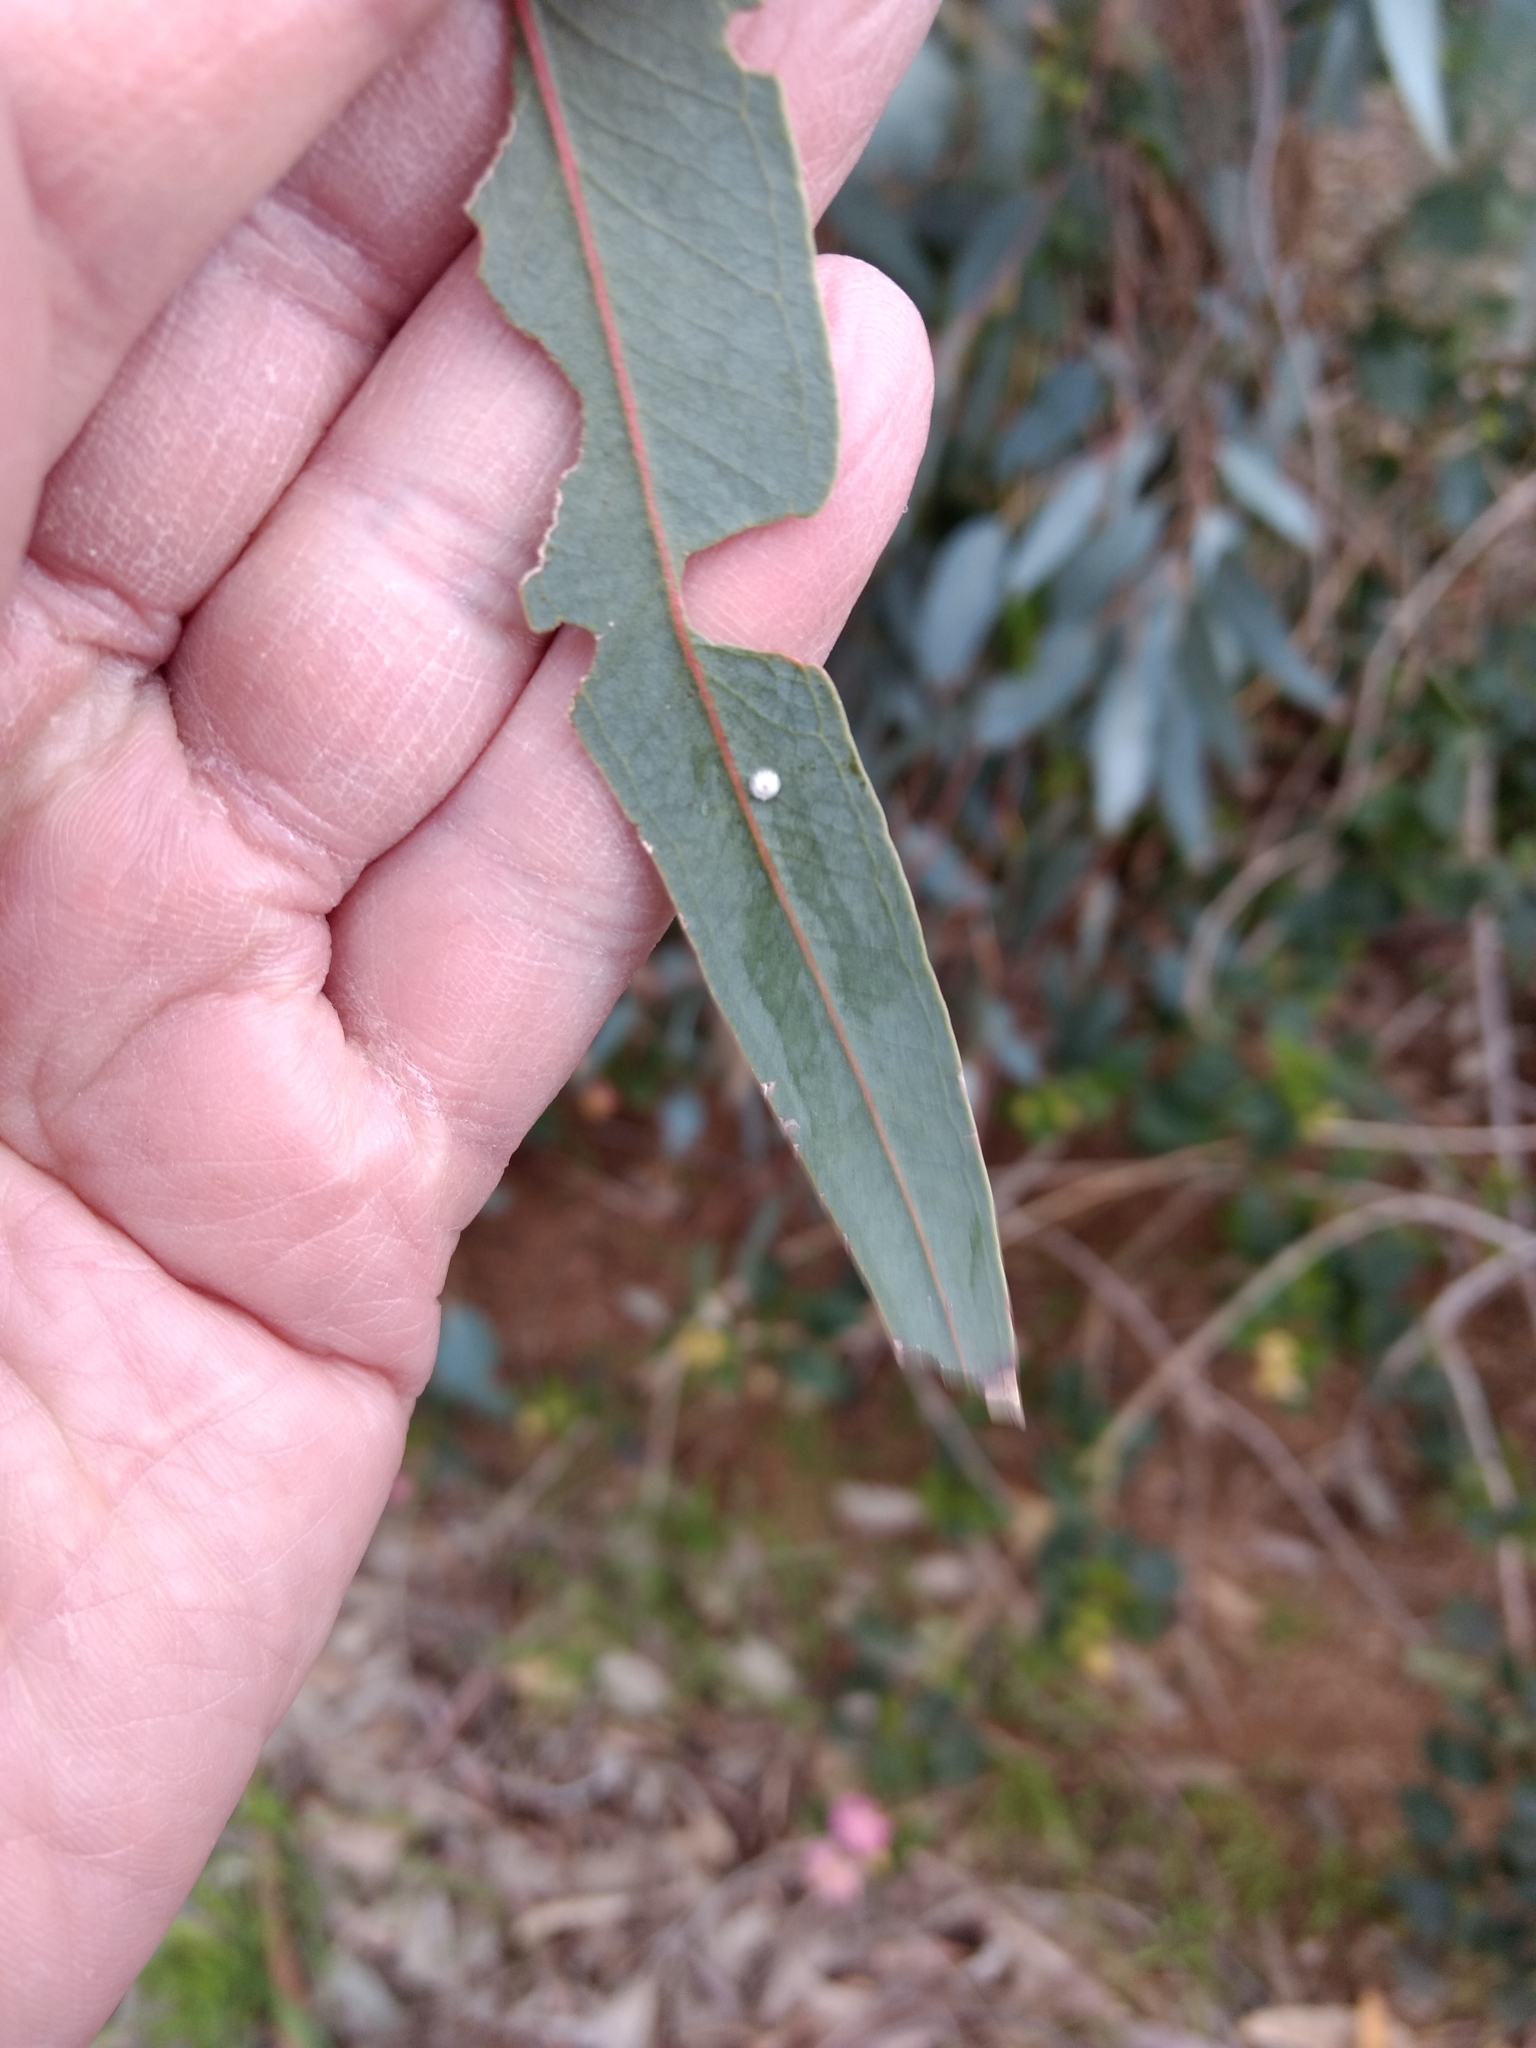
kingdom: Animalia
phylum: Arthropoda
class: Insecta
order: Hemiptera
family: Aphalaridae
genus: Glycaspis
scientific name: Glycaspis brimblecombei
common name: Red gum lerp psyllid
